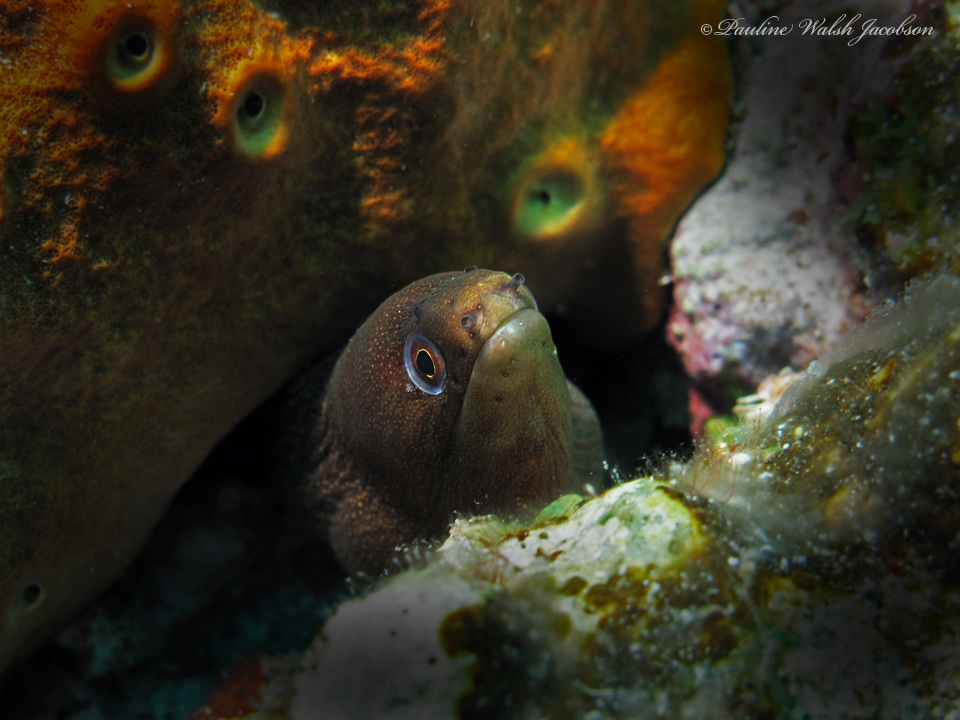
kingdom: Animalia
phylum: Chordata
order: Anguilliformes
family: Muraenidae
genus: Gymnothorax
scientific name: Gymnothorax miliaris
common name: Goldentail moray
